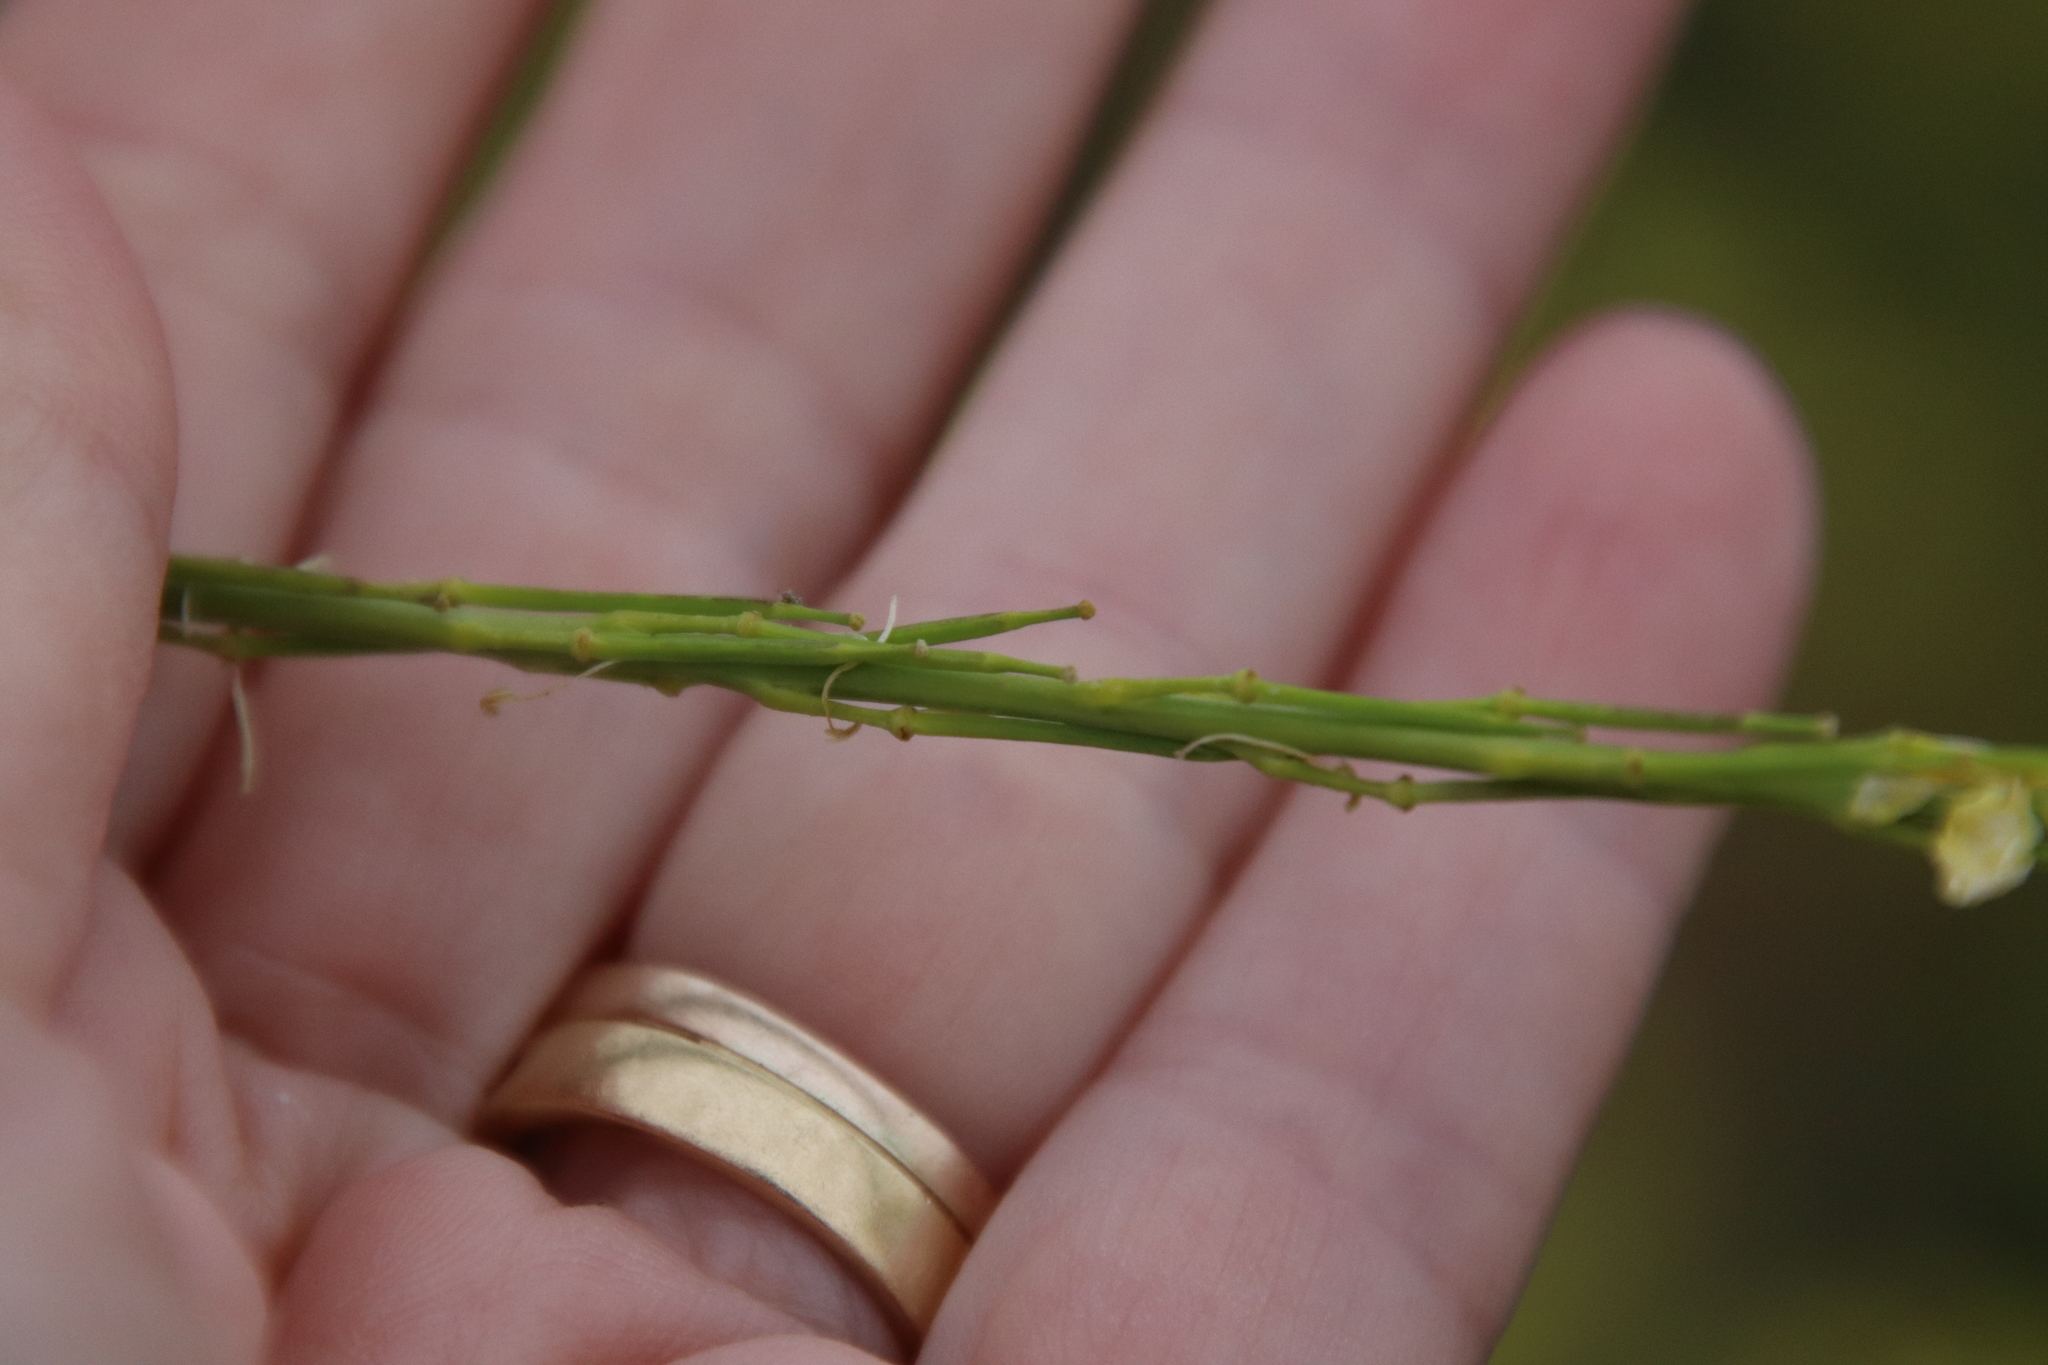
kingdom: Plantae
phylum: Tracheophyta
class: Magnoliopsida
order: Brassicales
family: Brassicaceae
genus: Brassica
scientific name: Brassica nigra
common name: Black mustard
